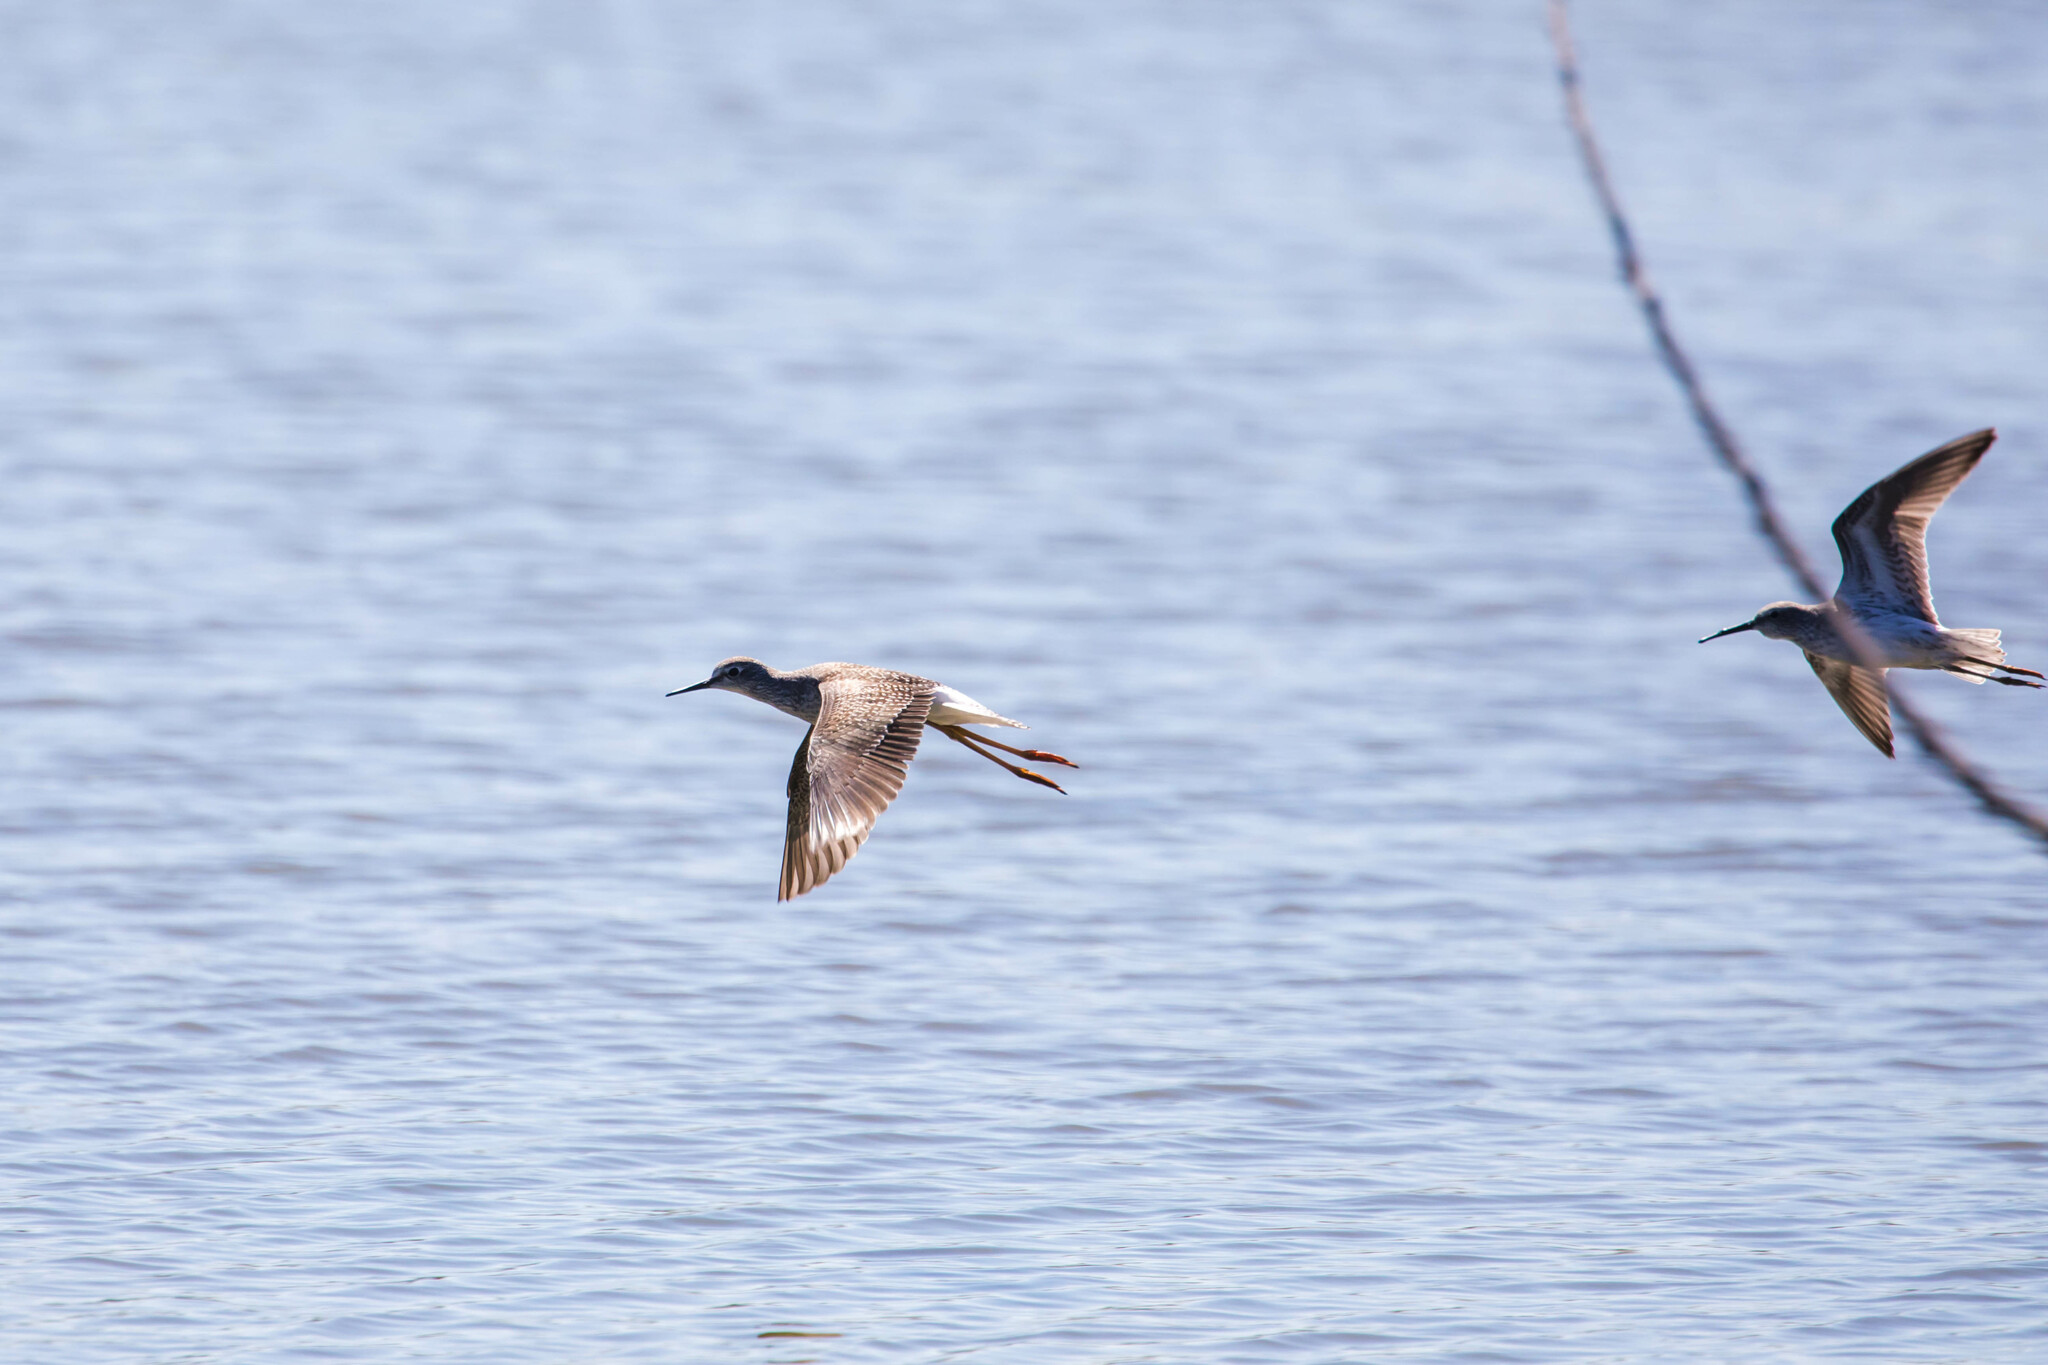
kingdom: Animalia
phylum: Chordata
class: Aves
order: Charadriiformes
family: Scolopacidae
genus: Tringa
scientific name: Tringa flavipes
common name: Lesser yellowlegs
